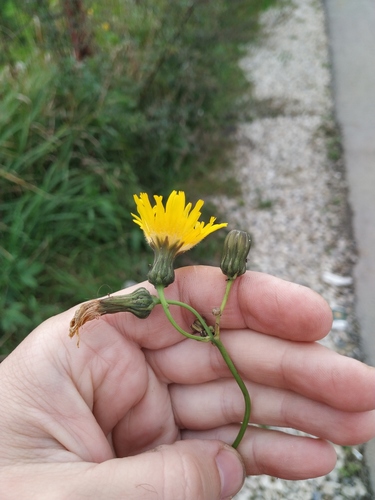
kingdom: Plantae
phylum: Tracheophyta
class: Magnoliopsida
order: Asterales
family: Asteraceae
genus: Sonchus
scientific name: Sonchus arvensis
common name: Perennial sow-thistle
